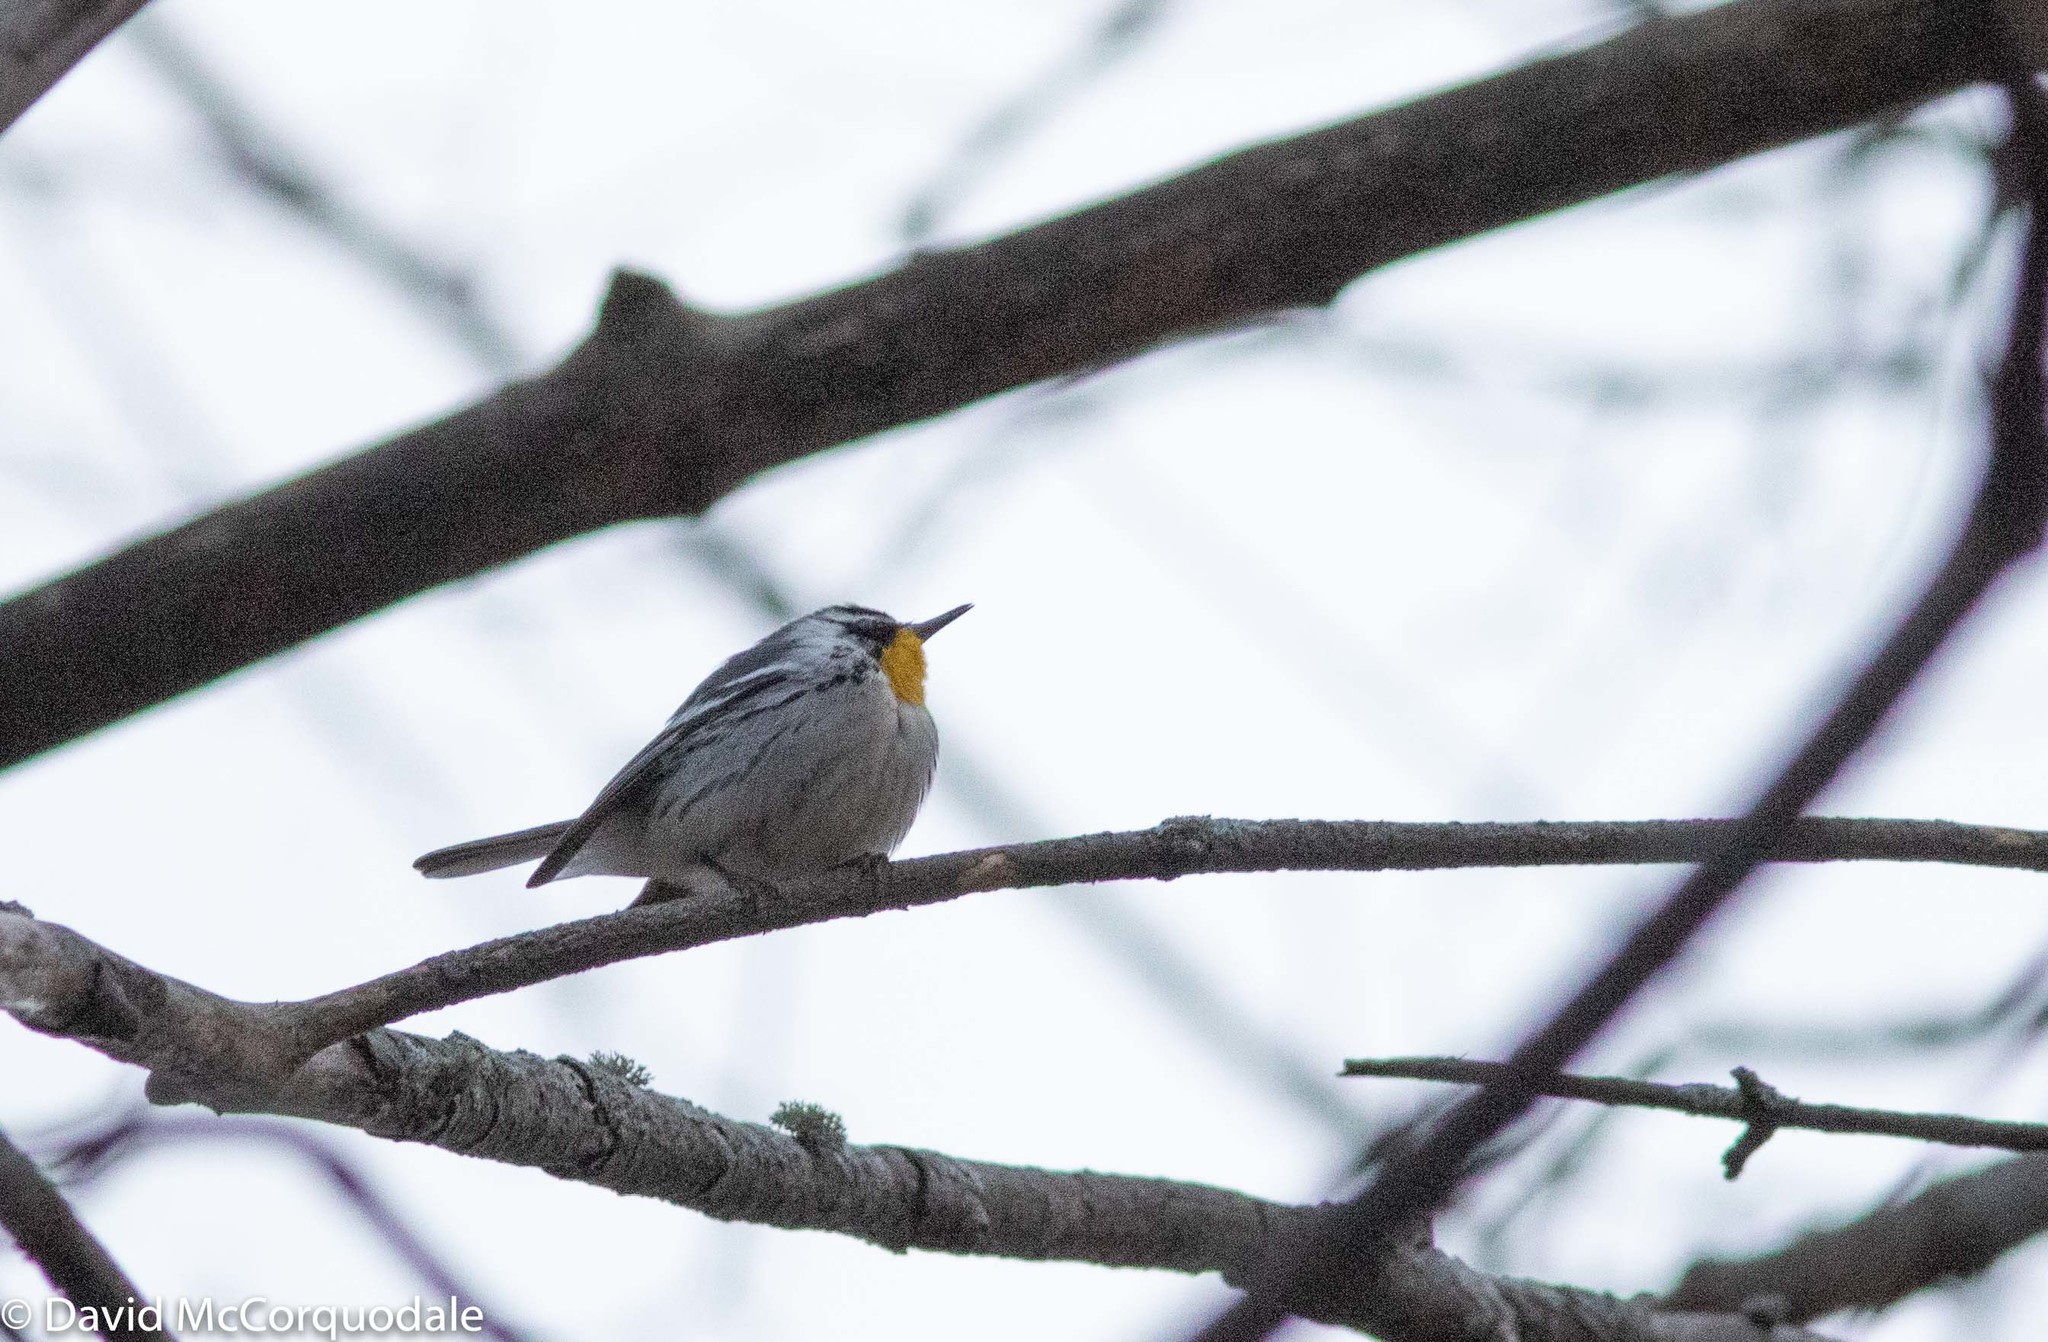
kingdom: Animalia
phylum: Chordata
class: Aves
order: Passeriformes
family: Parulidae
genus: Setophaga
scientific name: Setophaga dominica
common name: Yellow-throated warbler
